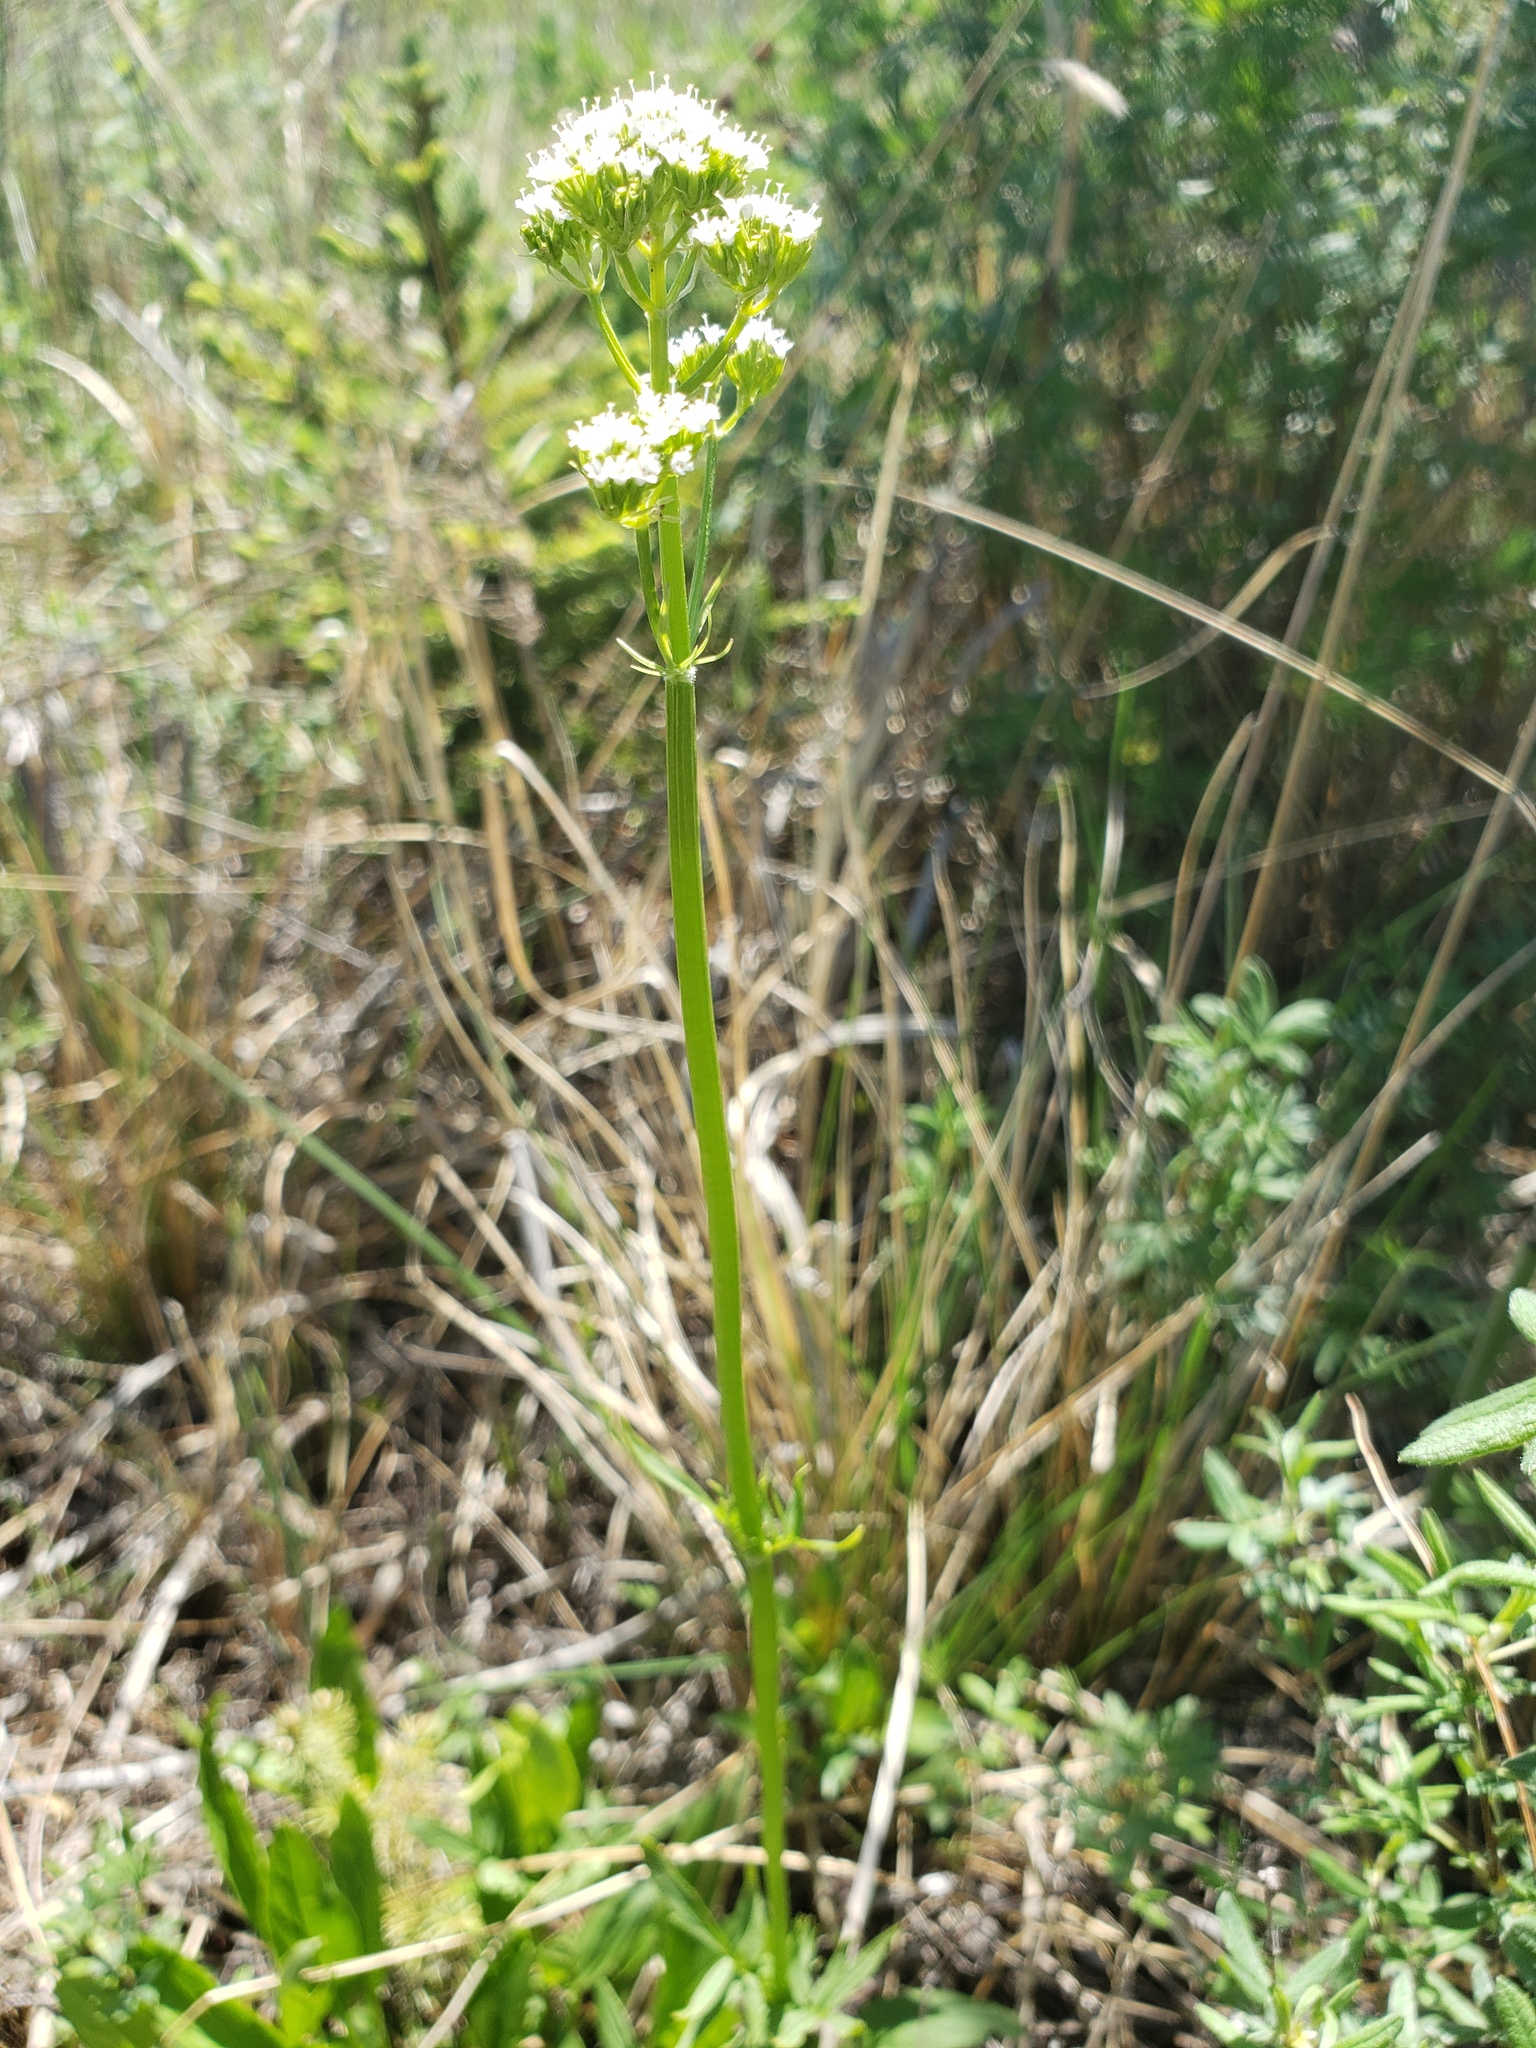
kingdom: Plantae
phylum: Tracheophyta
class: Magnoliopsida
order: Dipsacales
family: Caprifoliaceae
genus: Valeriana
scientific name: Valeriana dioica
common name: Marsh valerian
